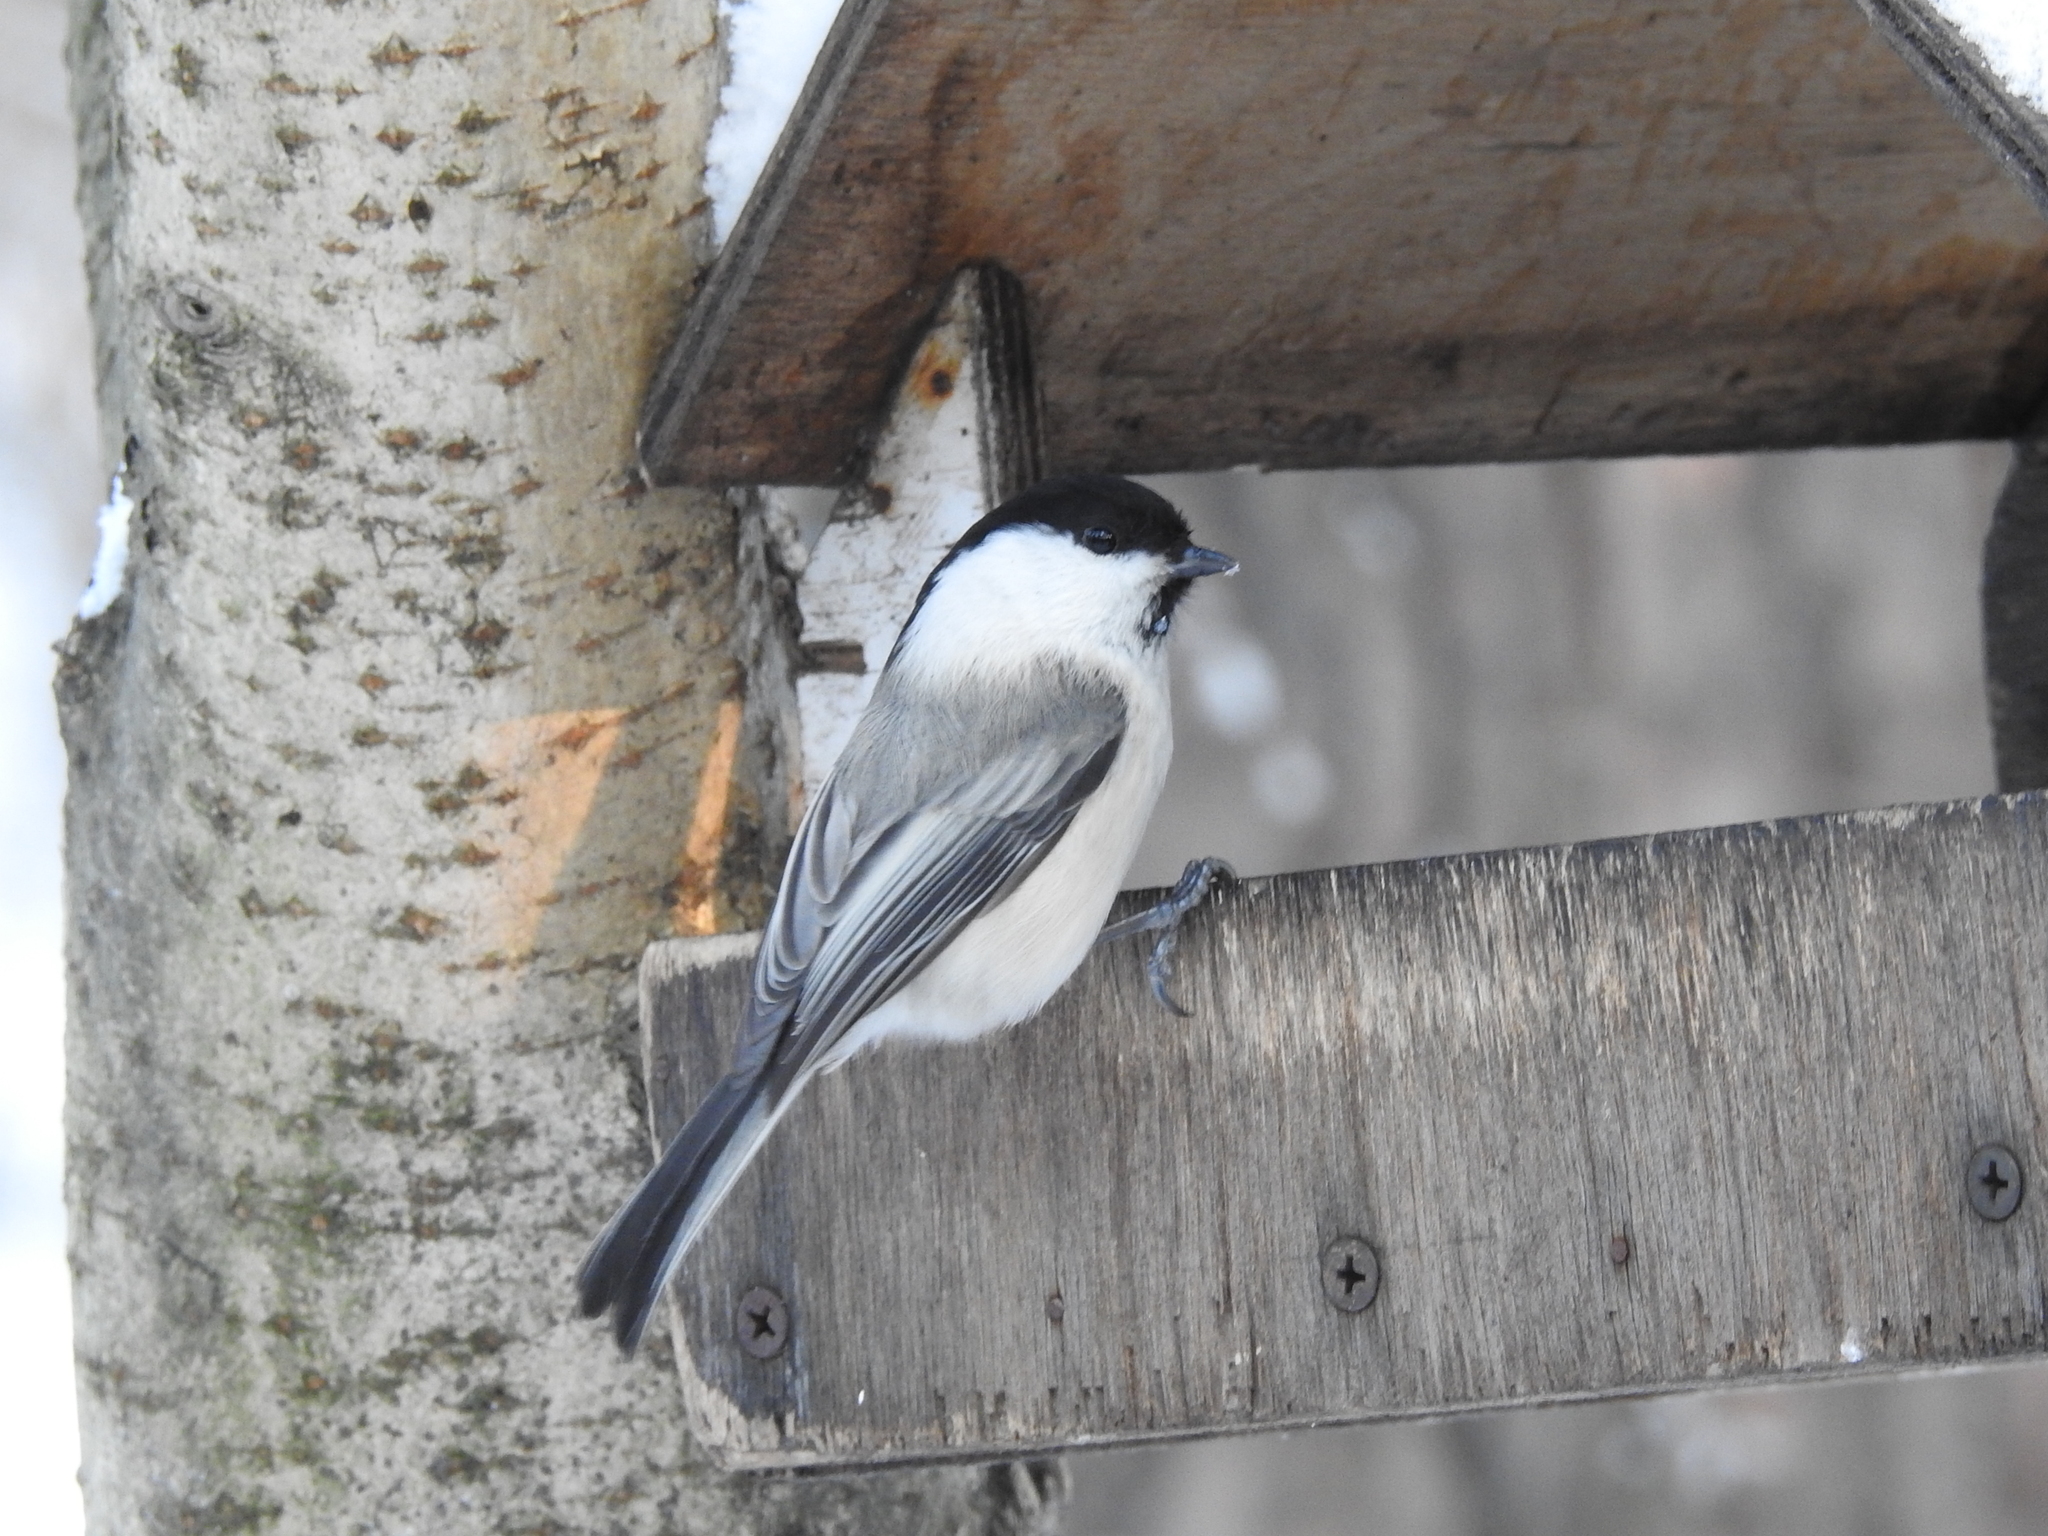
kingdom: Animalia
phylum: Chordata
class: Aves
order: Passeriformes
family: Paridae
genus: Poecile
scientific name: Poecile montanus
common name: Willow tit
